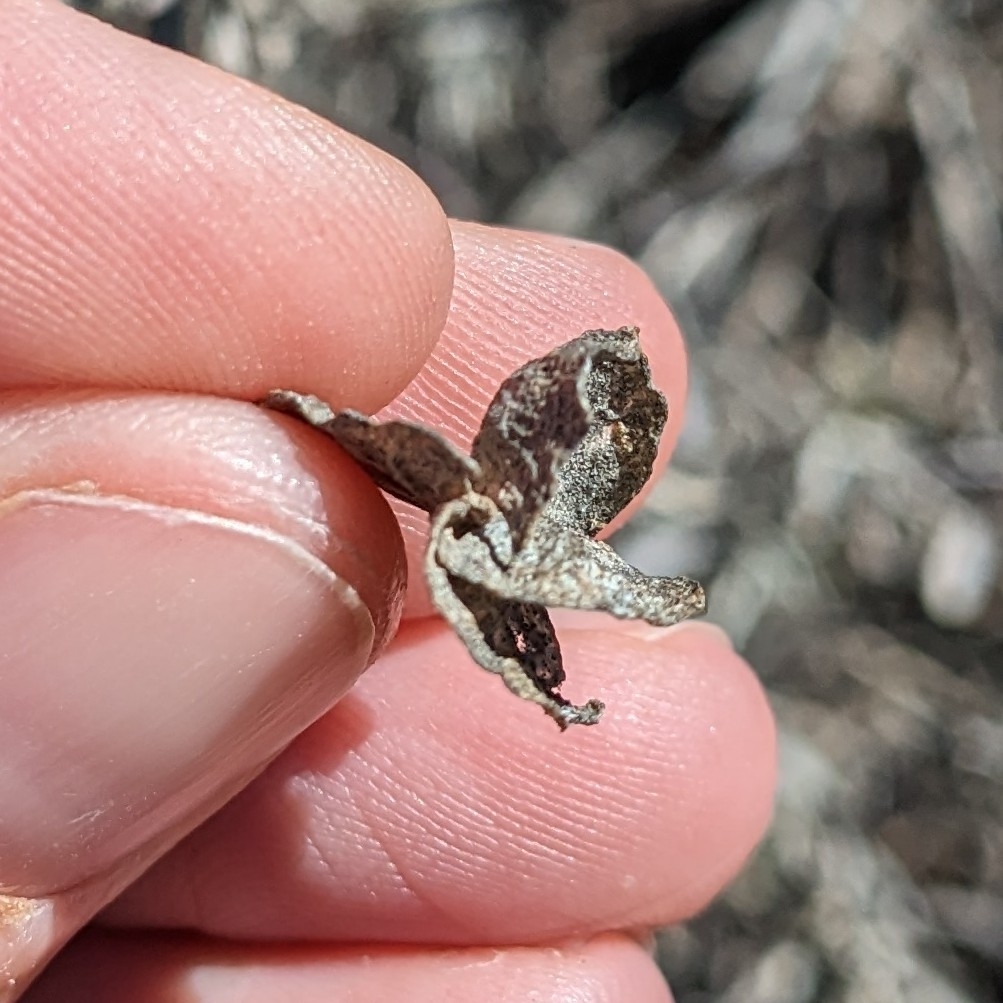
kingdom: Plantae
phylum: Tracheophyta
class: Magnoliopsida
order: Caryophyllales
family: Amaranthaceae
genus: Atriplex
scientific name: Atriplex canescens
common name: Four-wing saltbush
